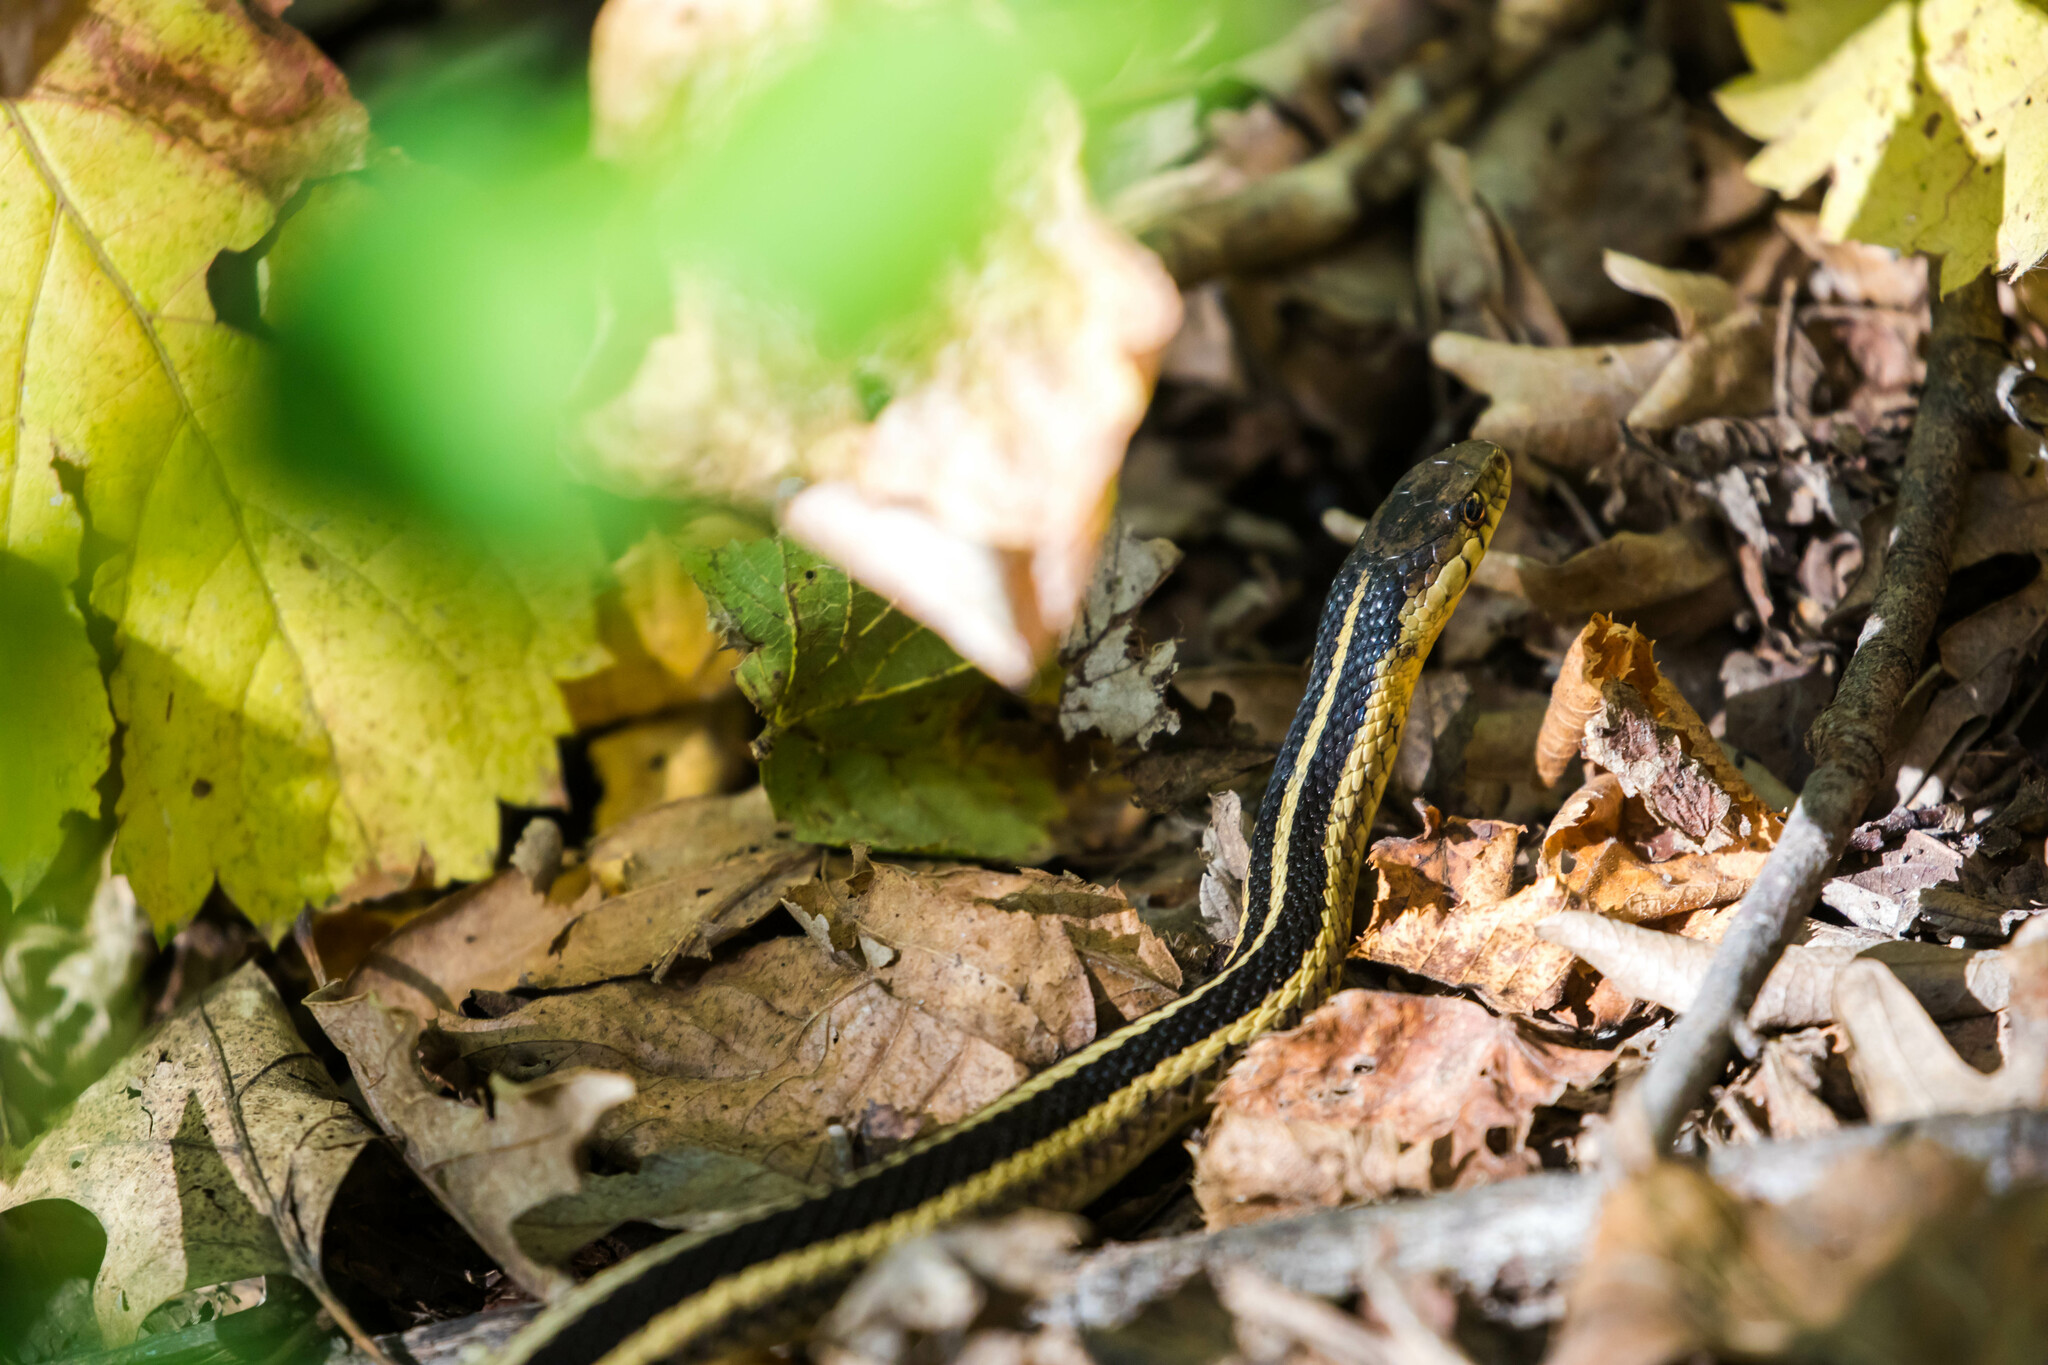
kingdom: Animalia
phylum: Chordata
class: Squamata
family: Colubridae
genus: Thamnophis
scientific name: Thamnophis sirtalis
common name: Common garter snake
